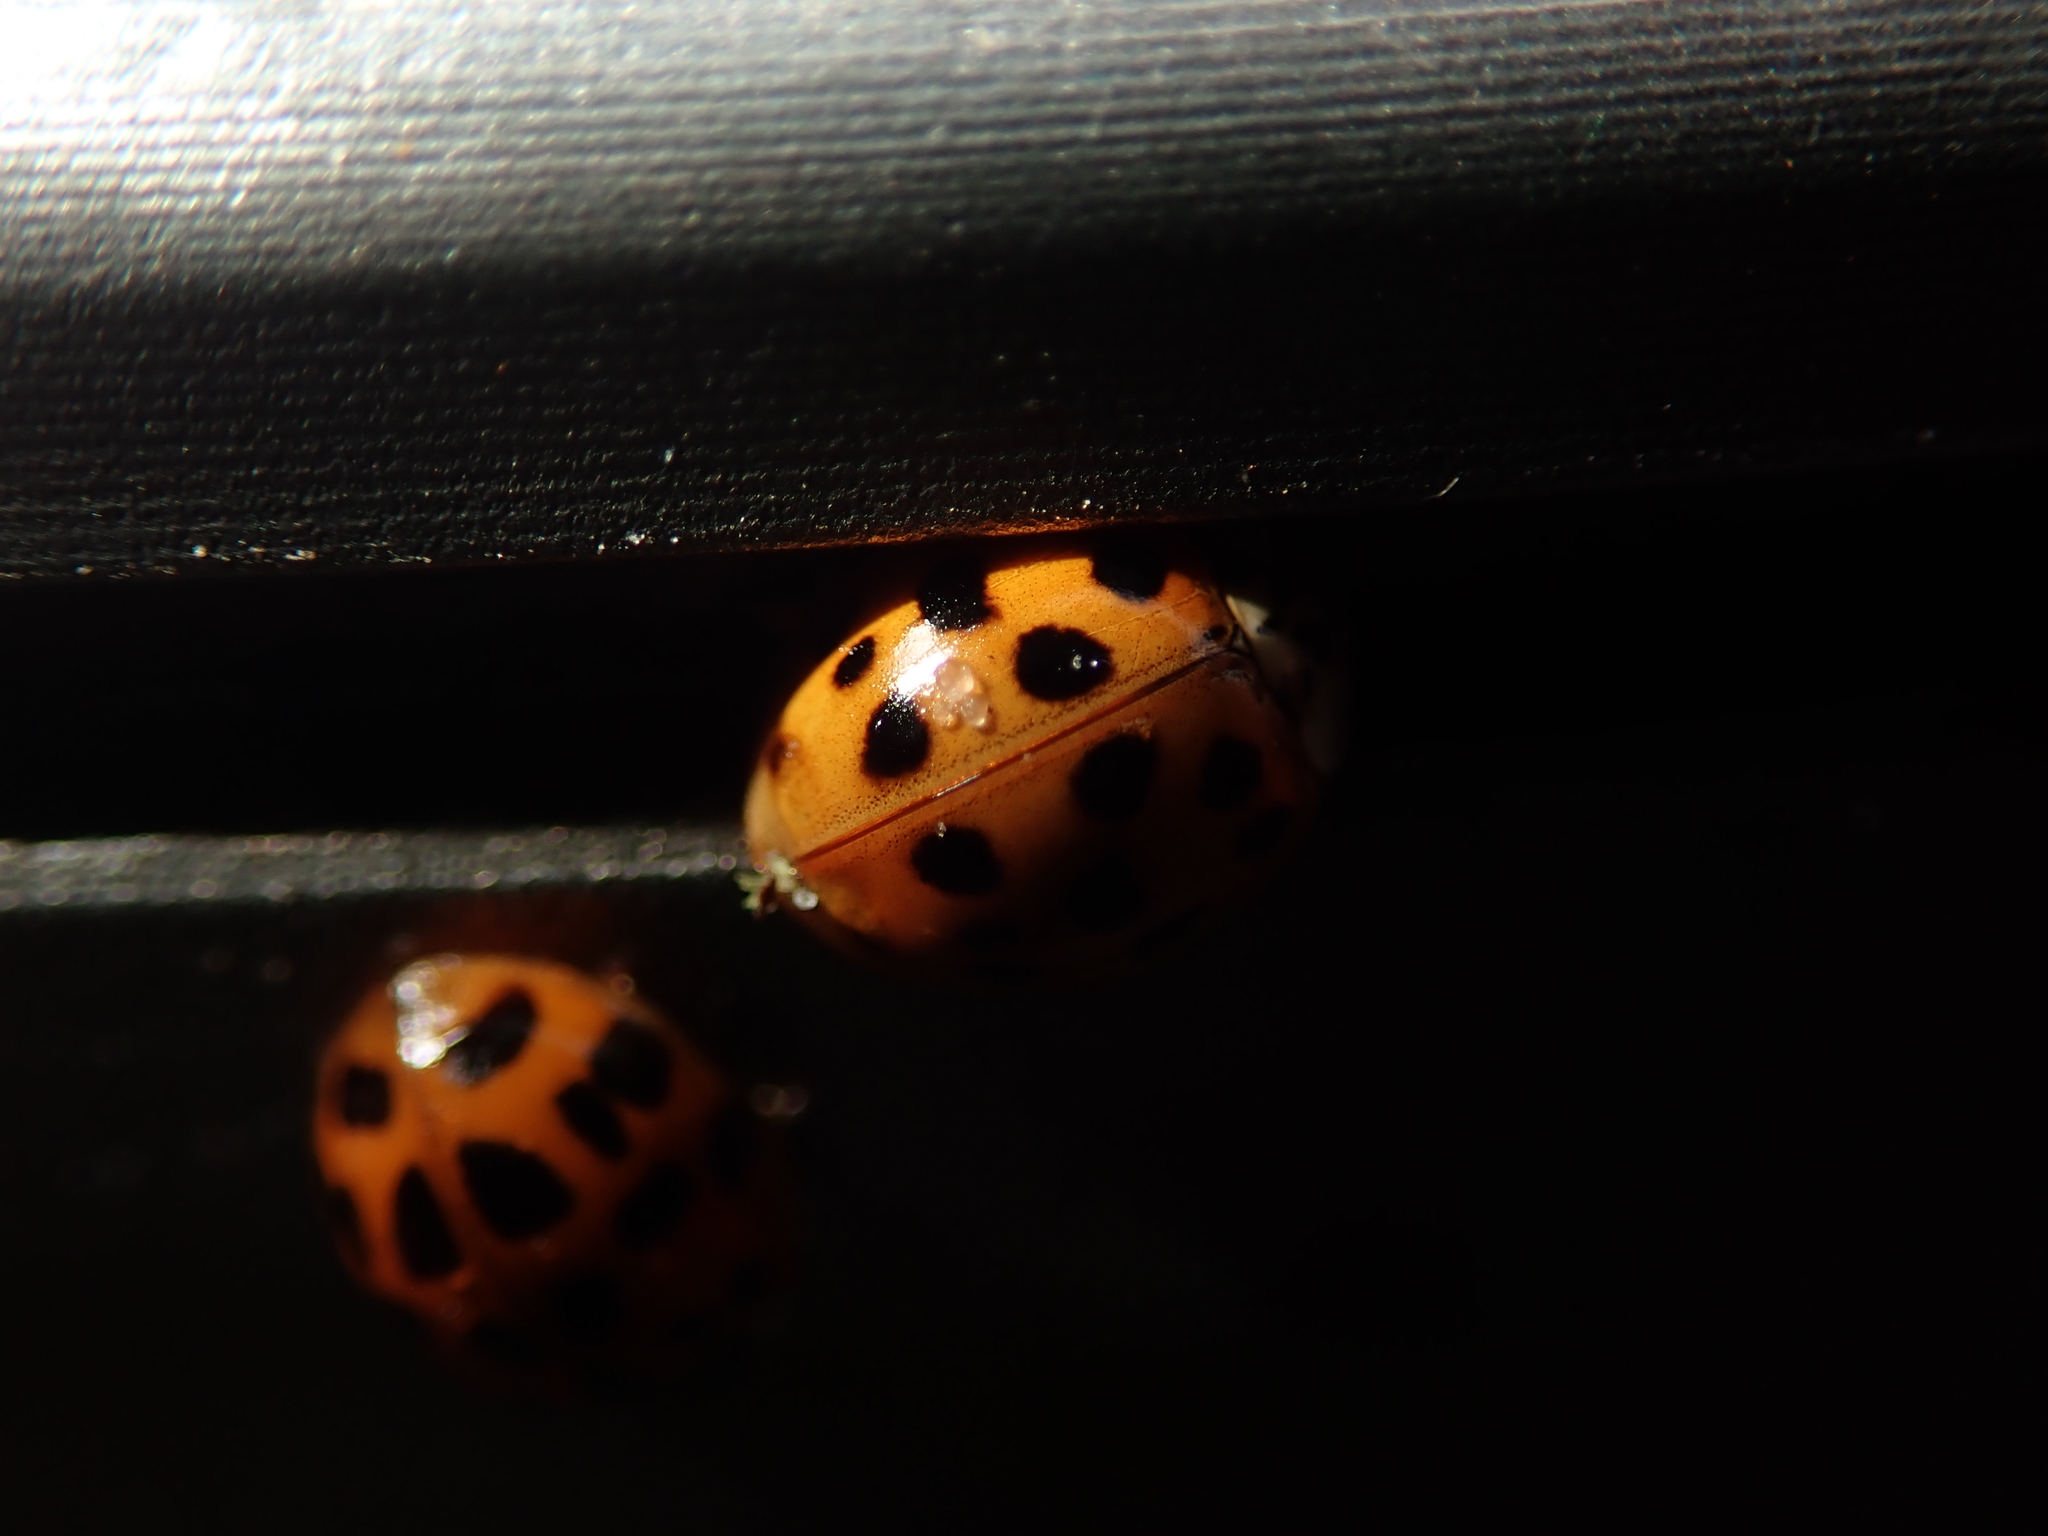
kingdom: Animalia
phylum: Arthropoda
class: Insecta
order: Coleoptera
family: Coccinellidae
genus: Harmonia
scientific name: Harmonia axyridis
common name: Harlequin ladybird
